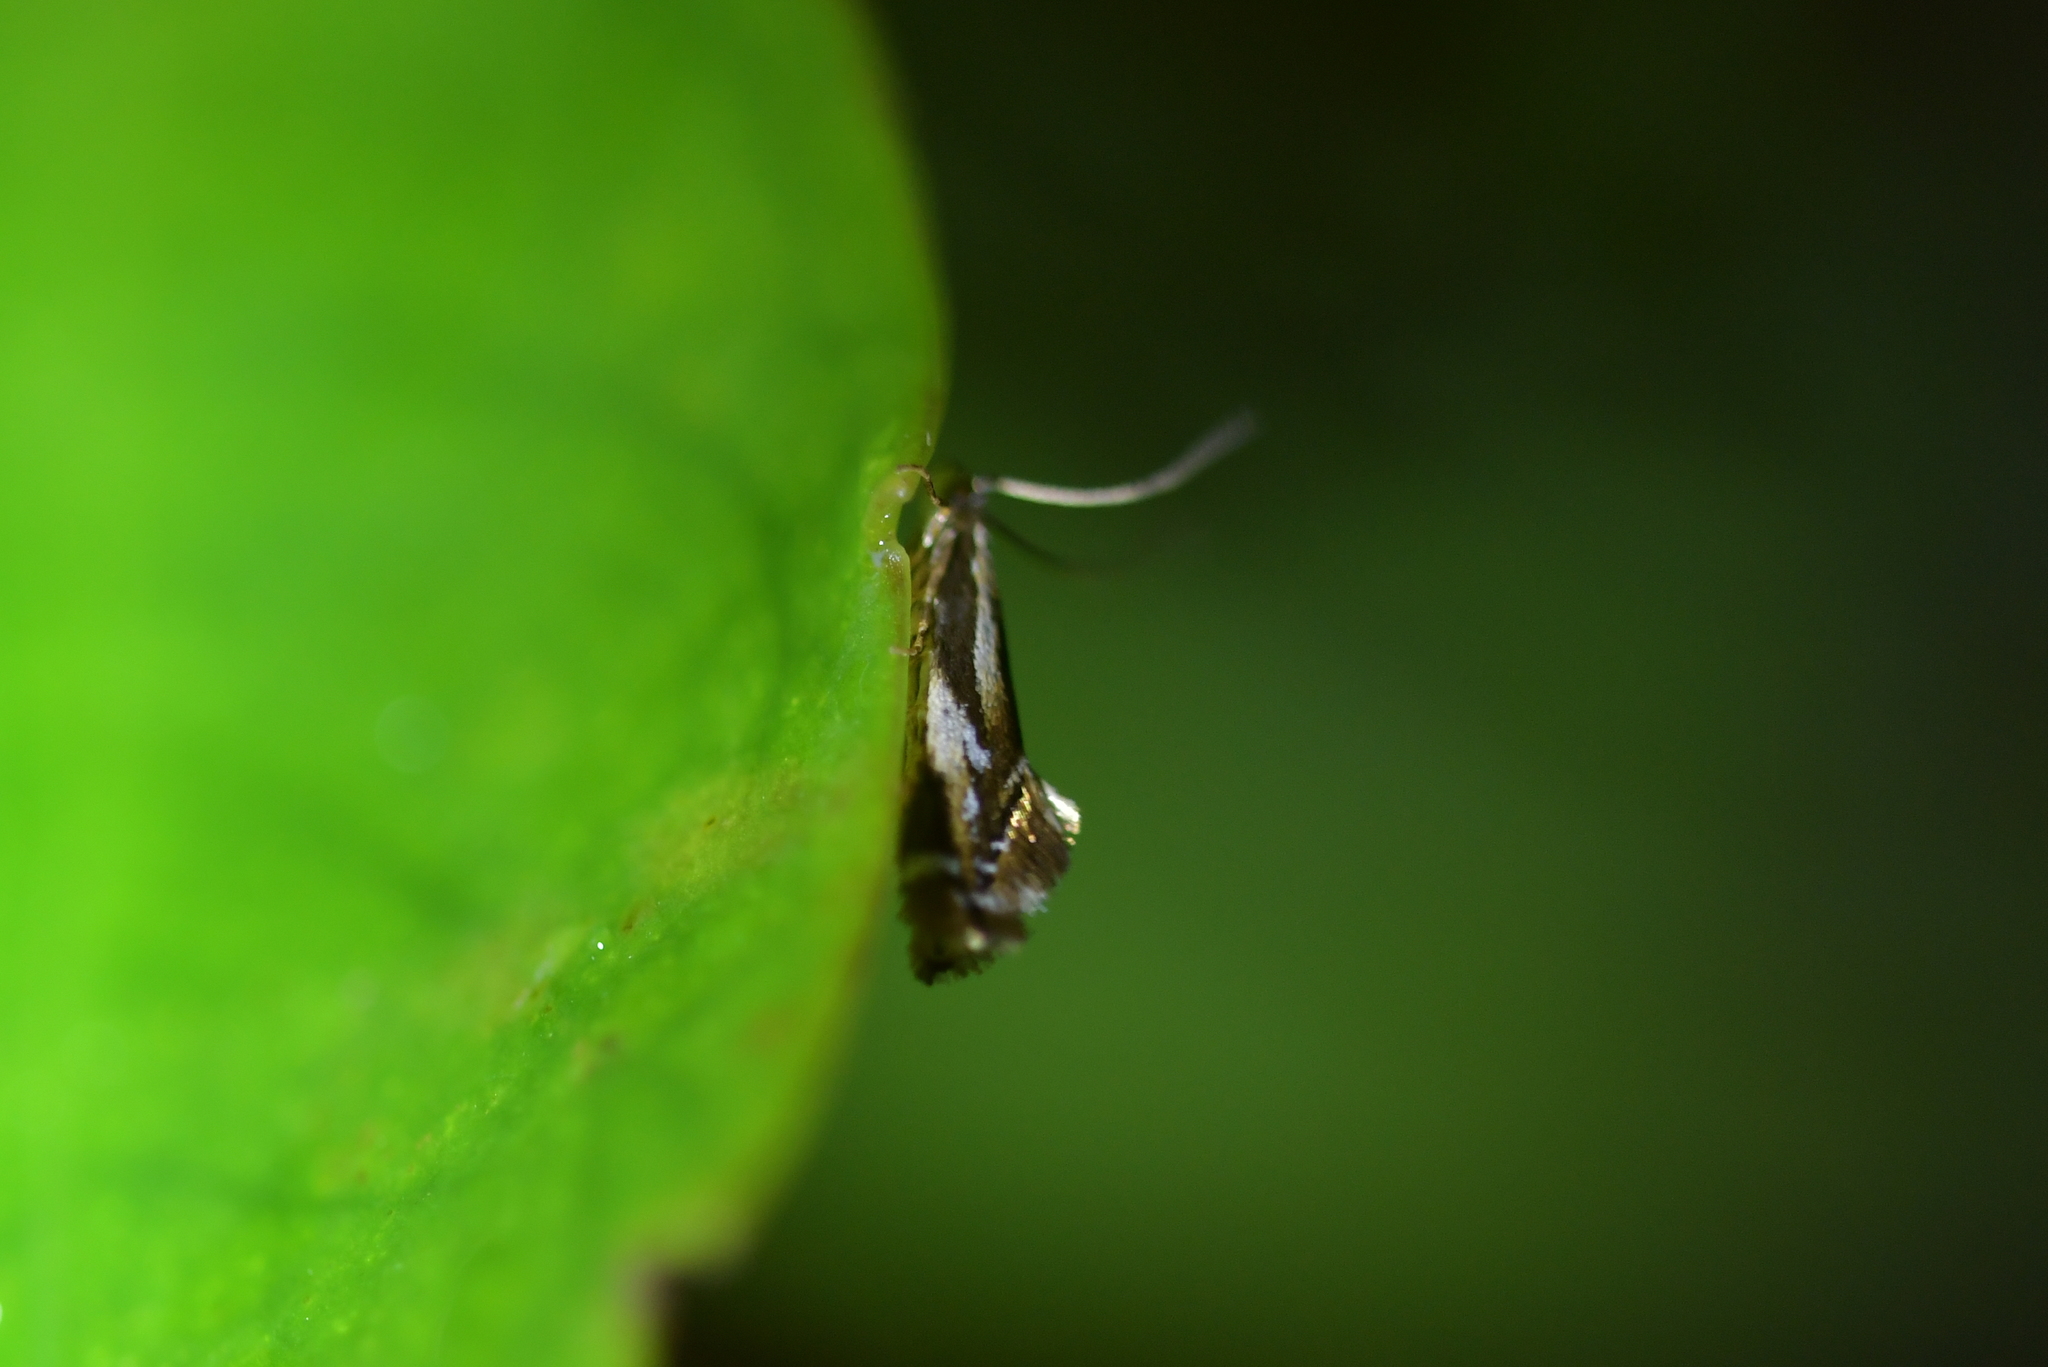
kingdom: Animalia
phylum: Arthropoda
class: Insecta
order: Lepidoptera
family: Mnesarchaeidae
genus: Mnesarchella
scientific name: Mnesarchella acuta
